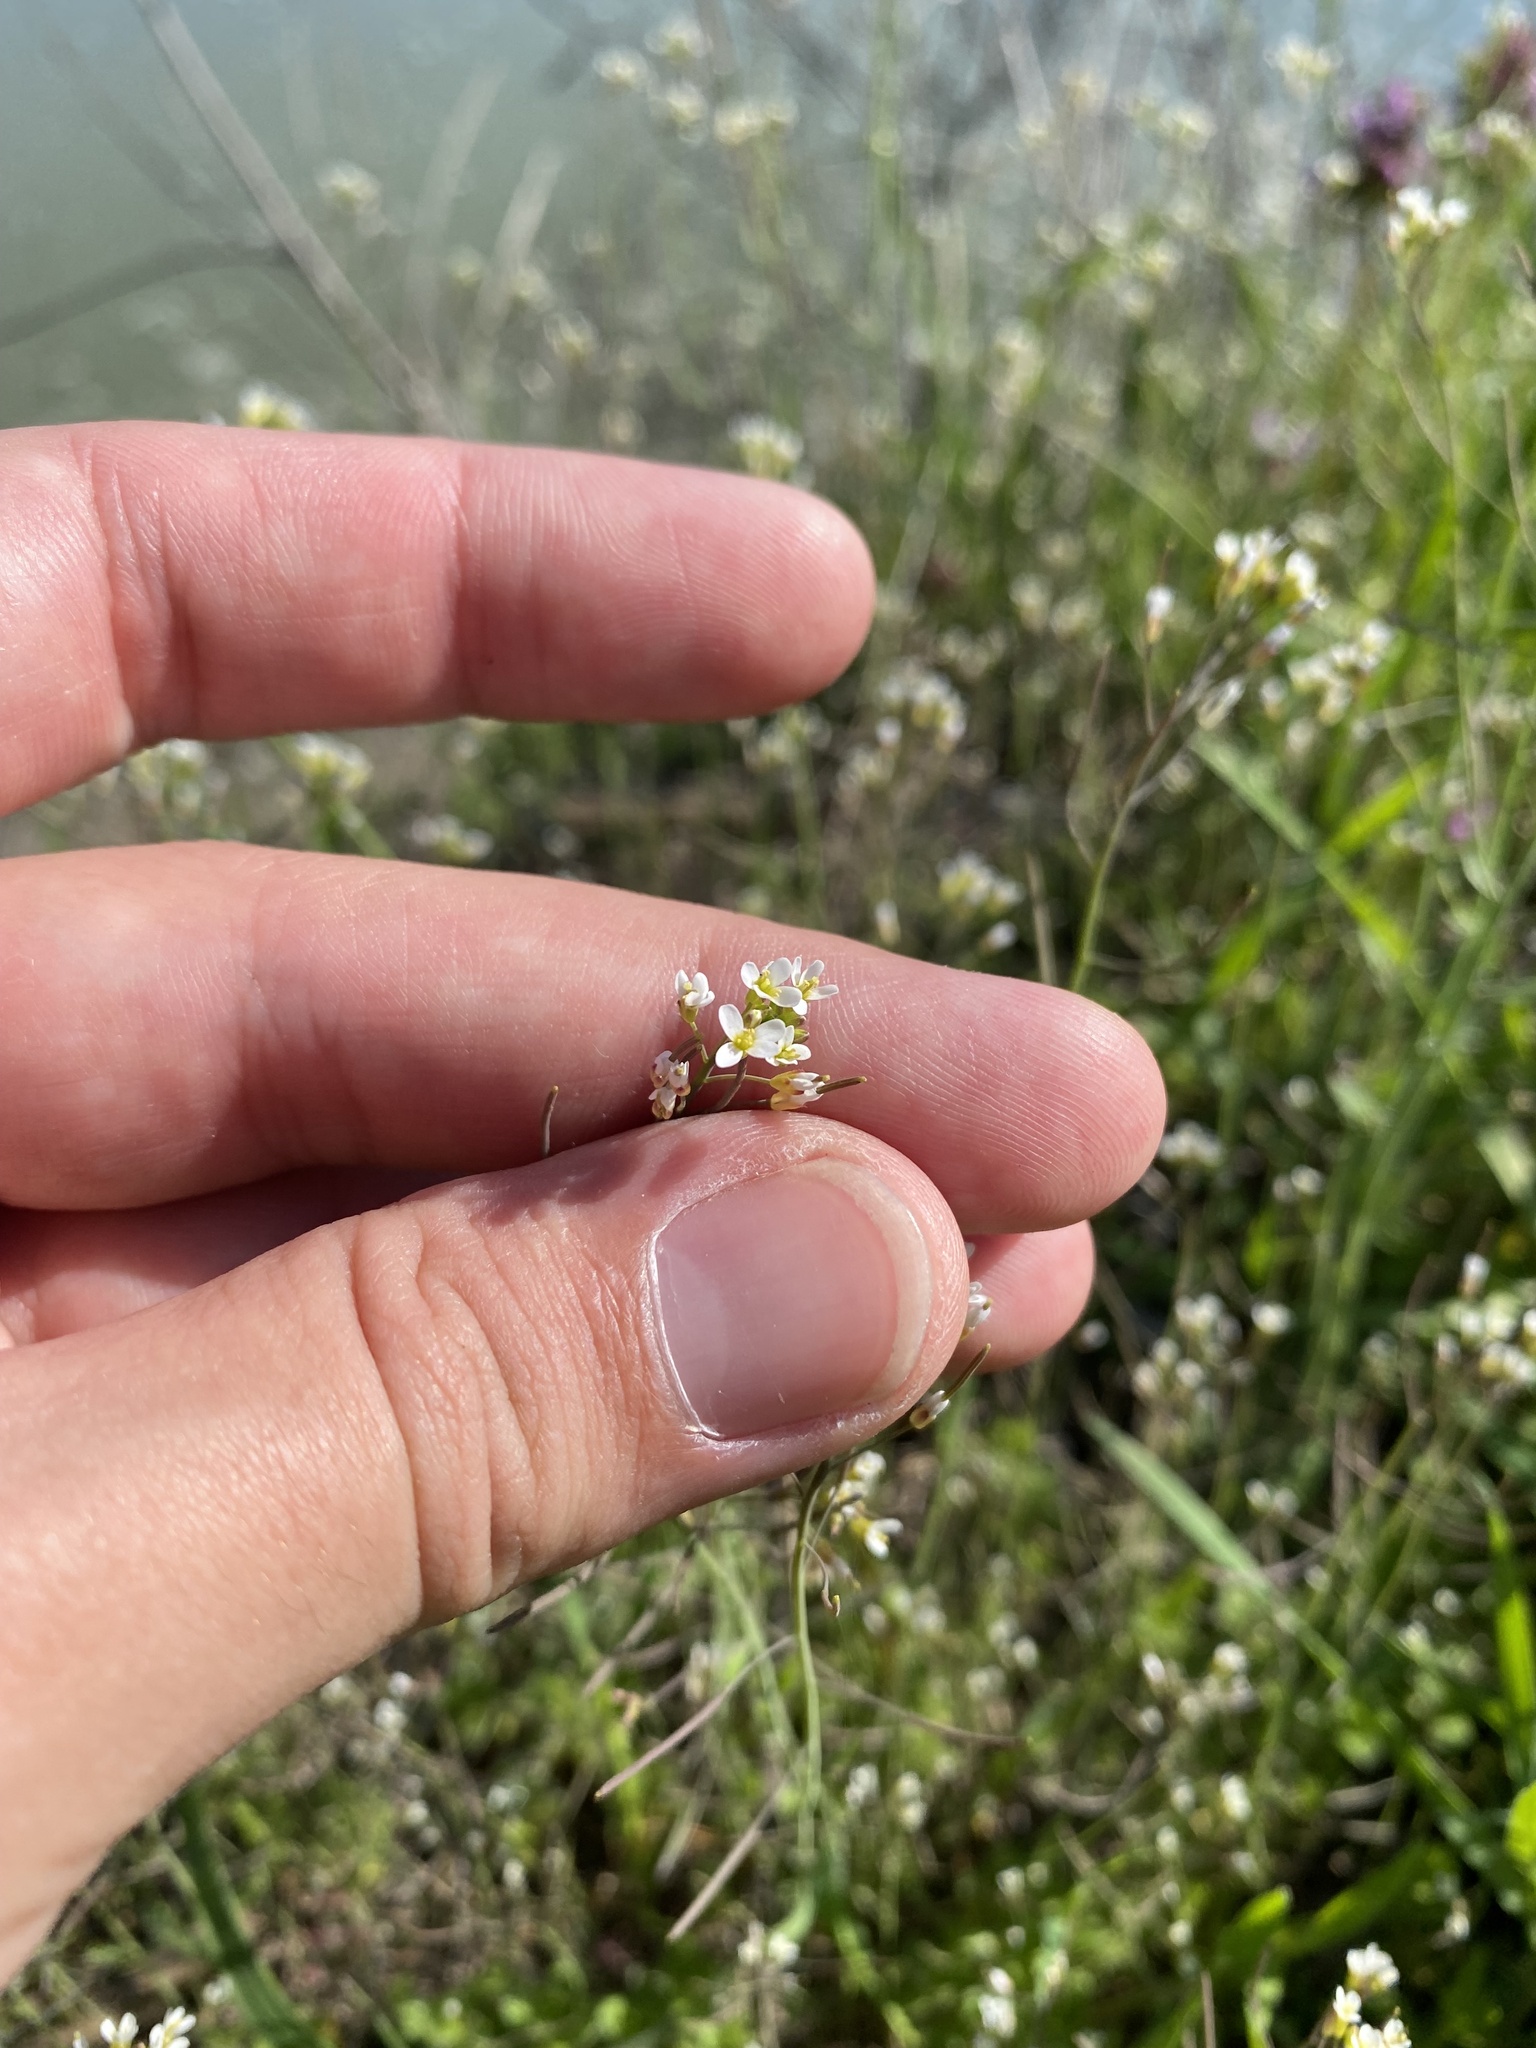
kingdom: Plantae
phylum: Tracheophyta
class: Magnoliopsida
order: Brassicales
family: Brassicaceae
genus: Arabidopsis
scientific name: Arabidopsis thaliana
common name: Thale cress
